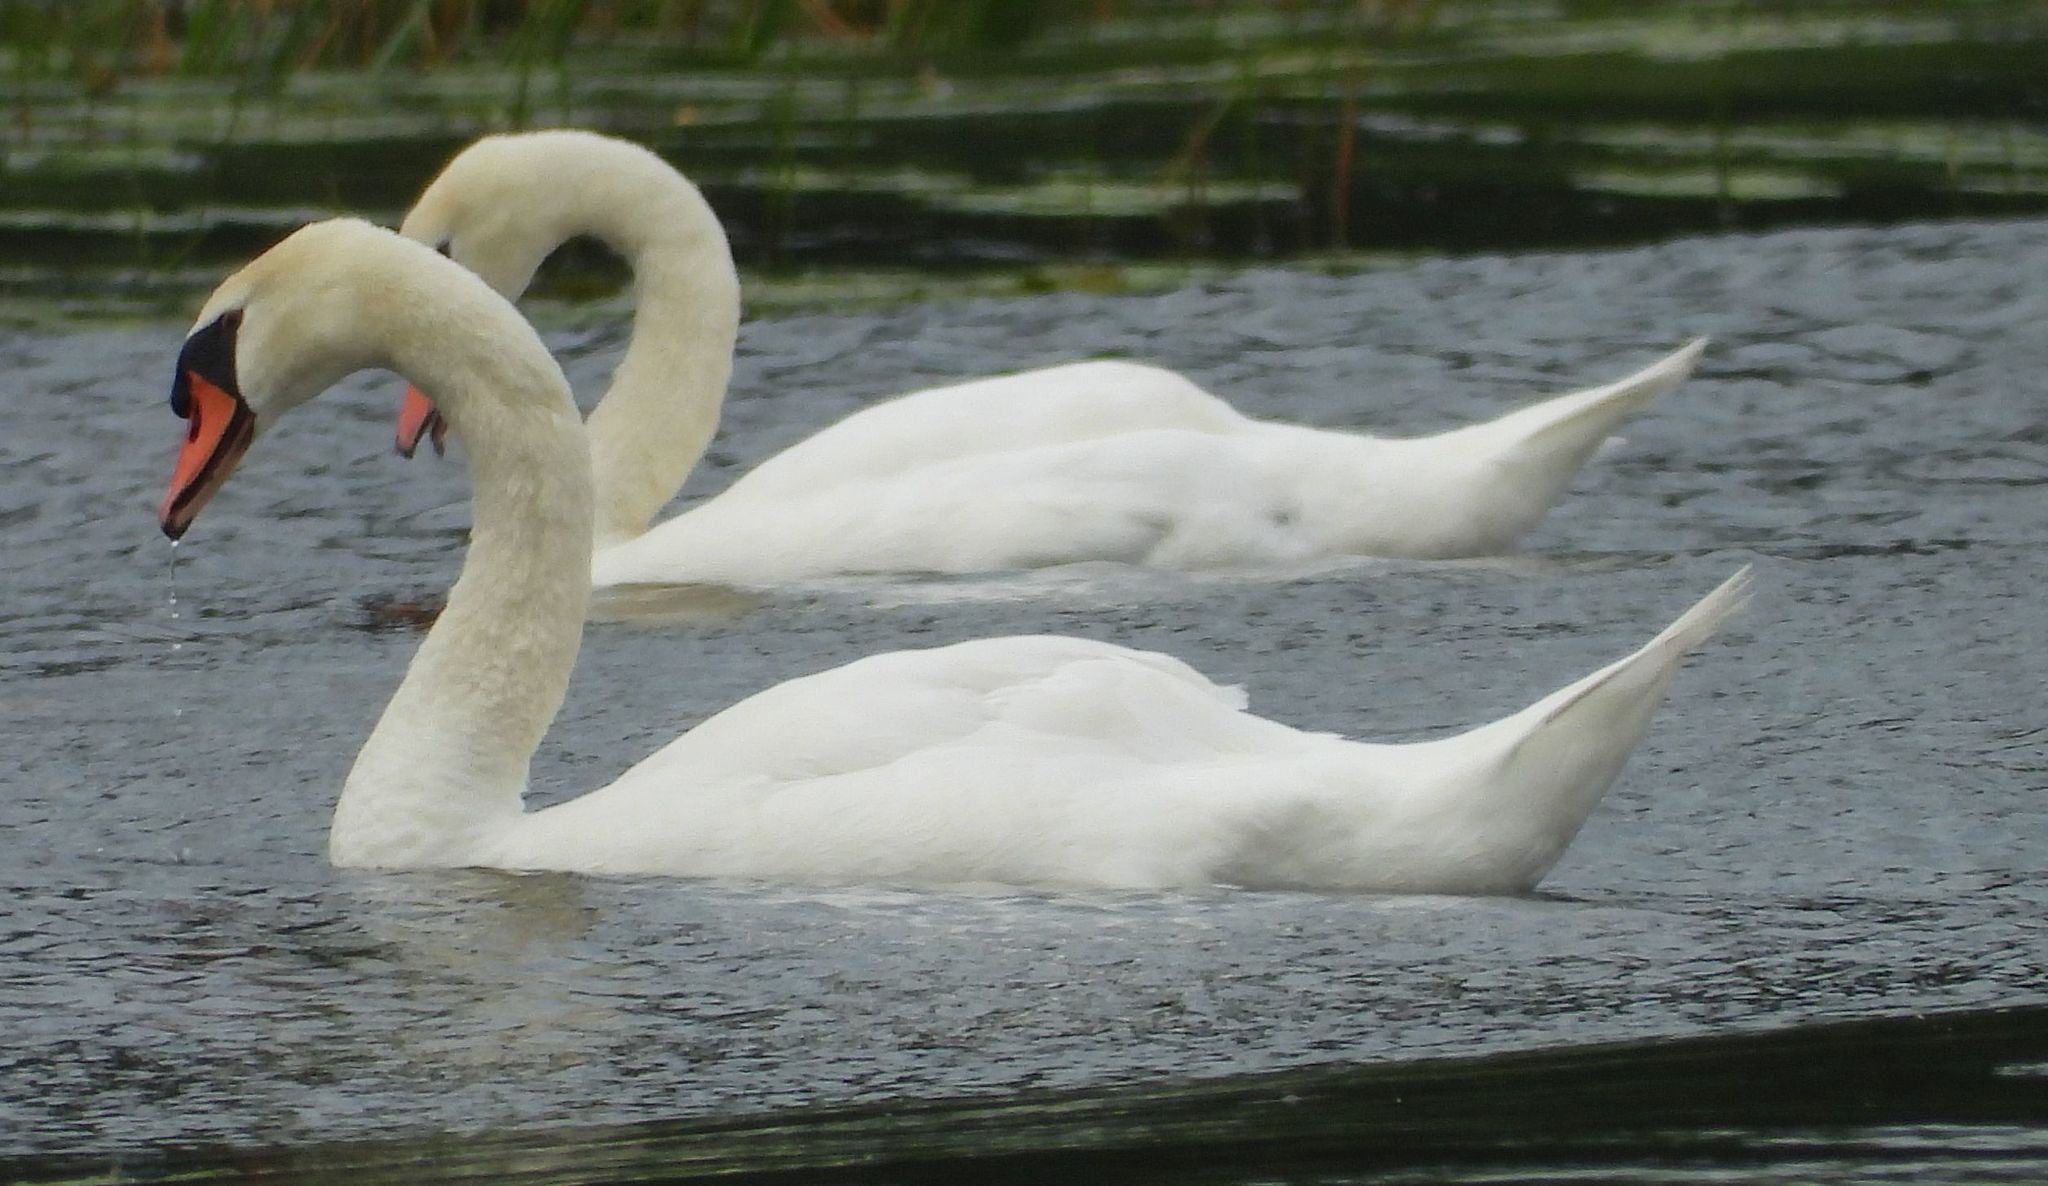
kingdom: Animalia
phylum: Chordata
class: Aves
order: Anseriformes
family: Anatidae
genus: Cygnus
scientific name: Cygnus olor
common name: Mute swan
